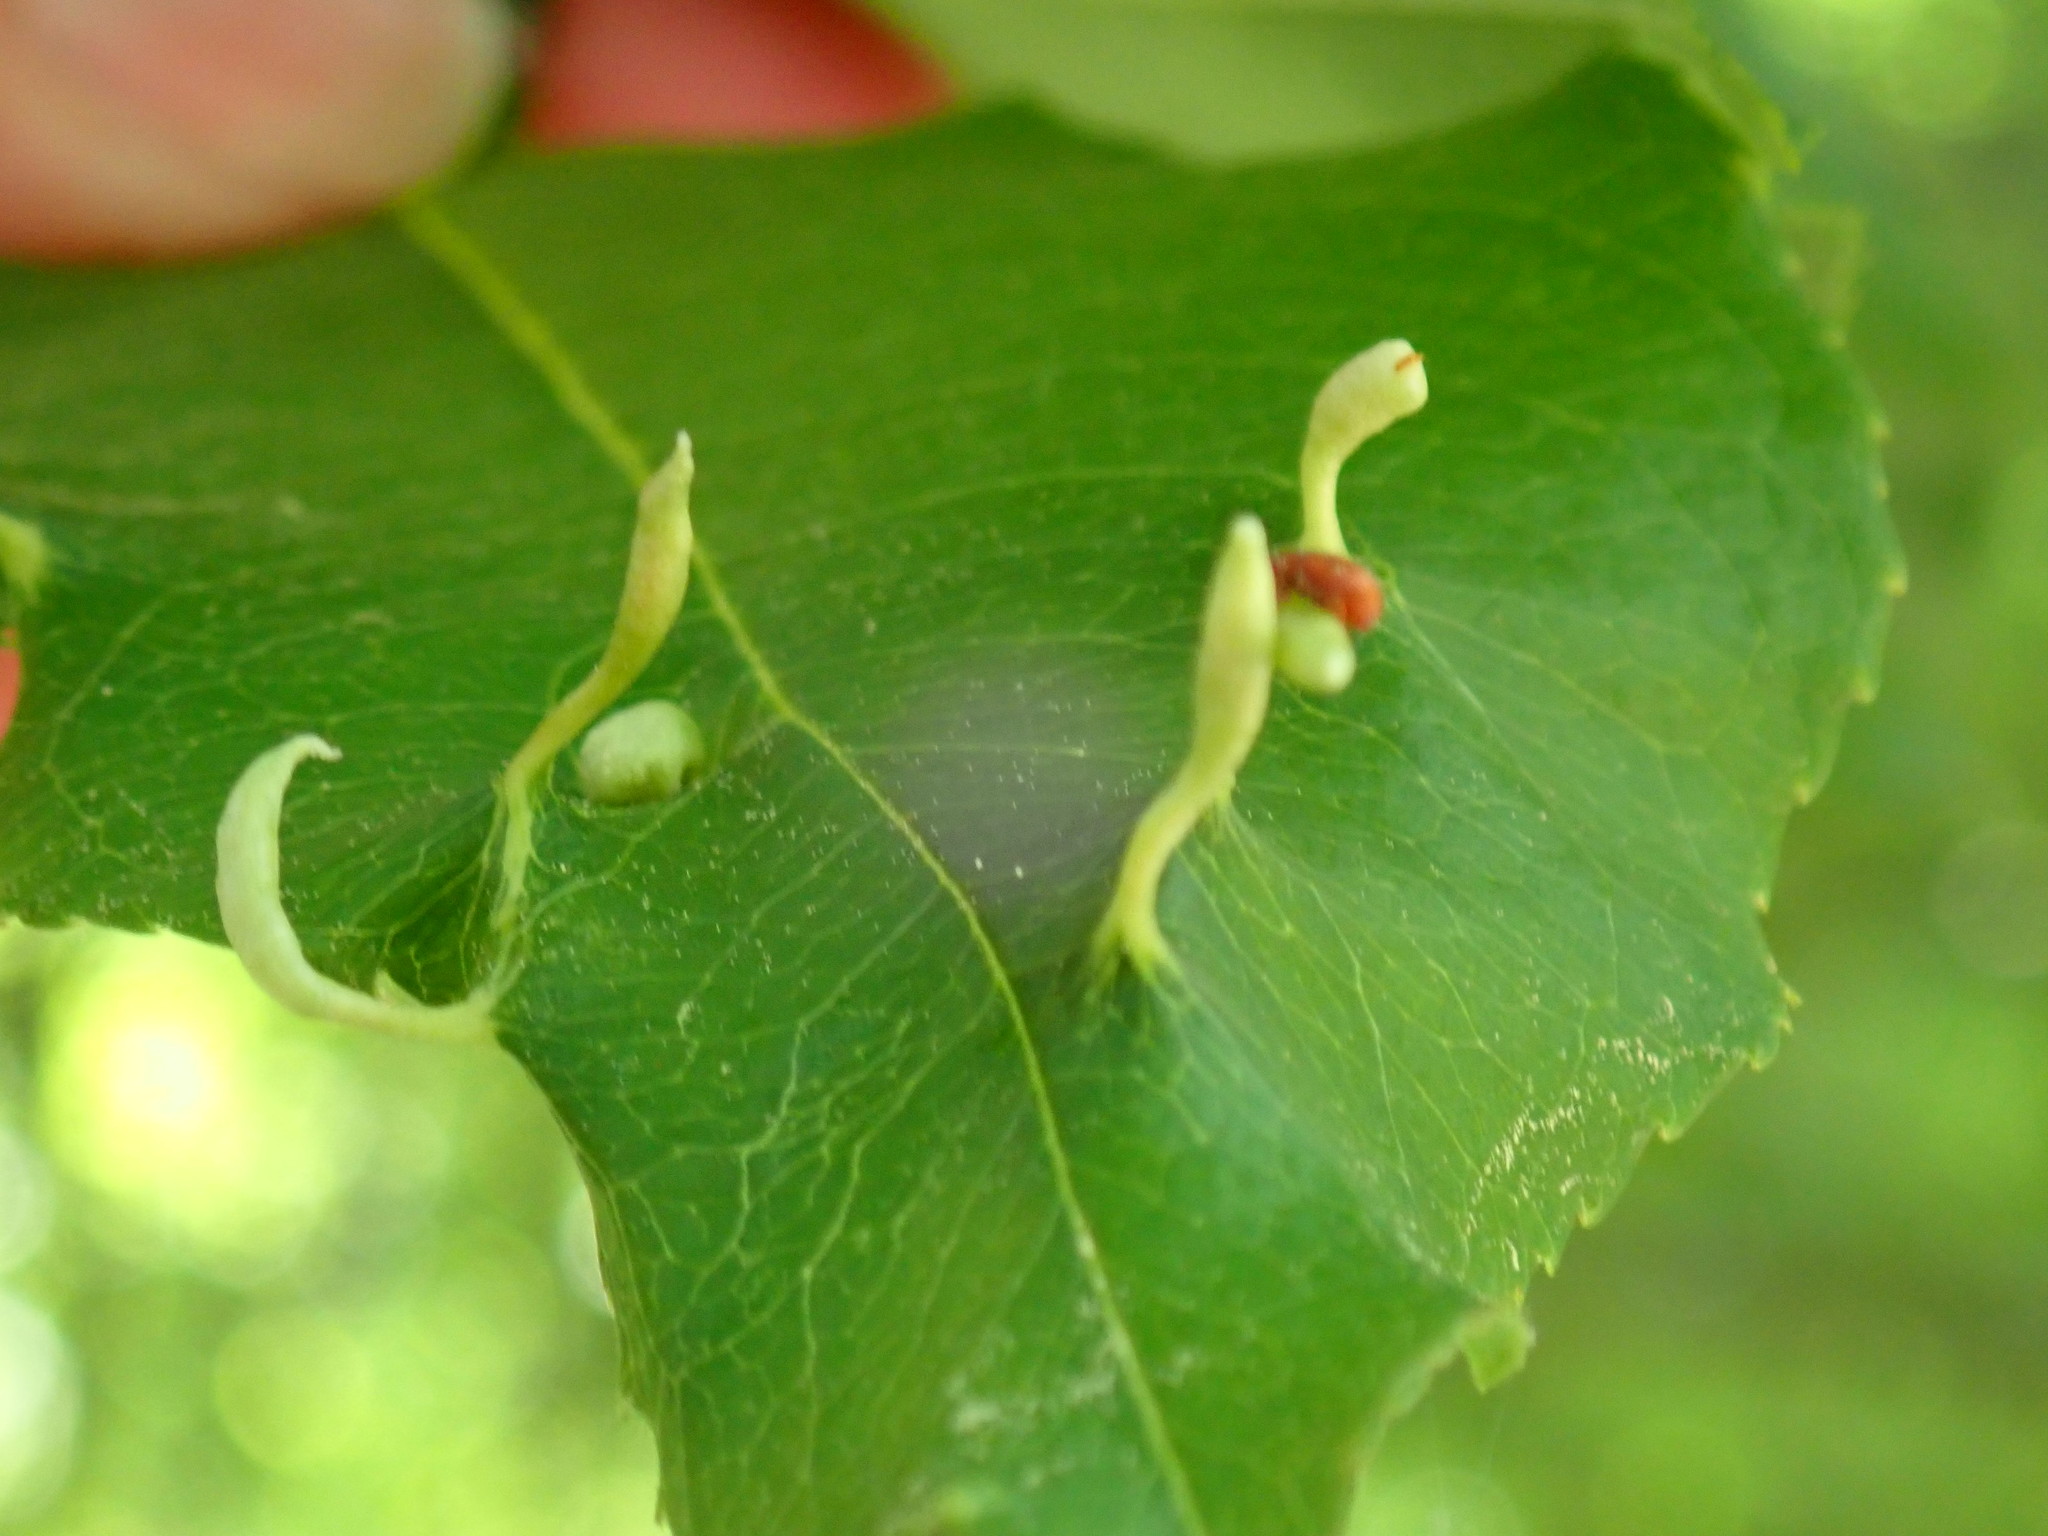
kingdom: Animalia
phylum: Arthropoda
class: Arachnida
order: Trombidiformes
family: Eriophyidae
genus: Eriophyes
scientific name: Eriophyes
